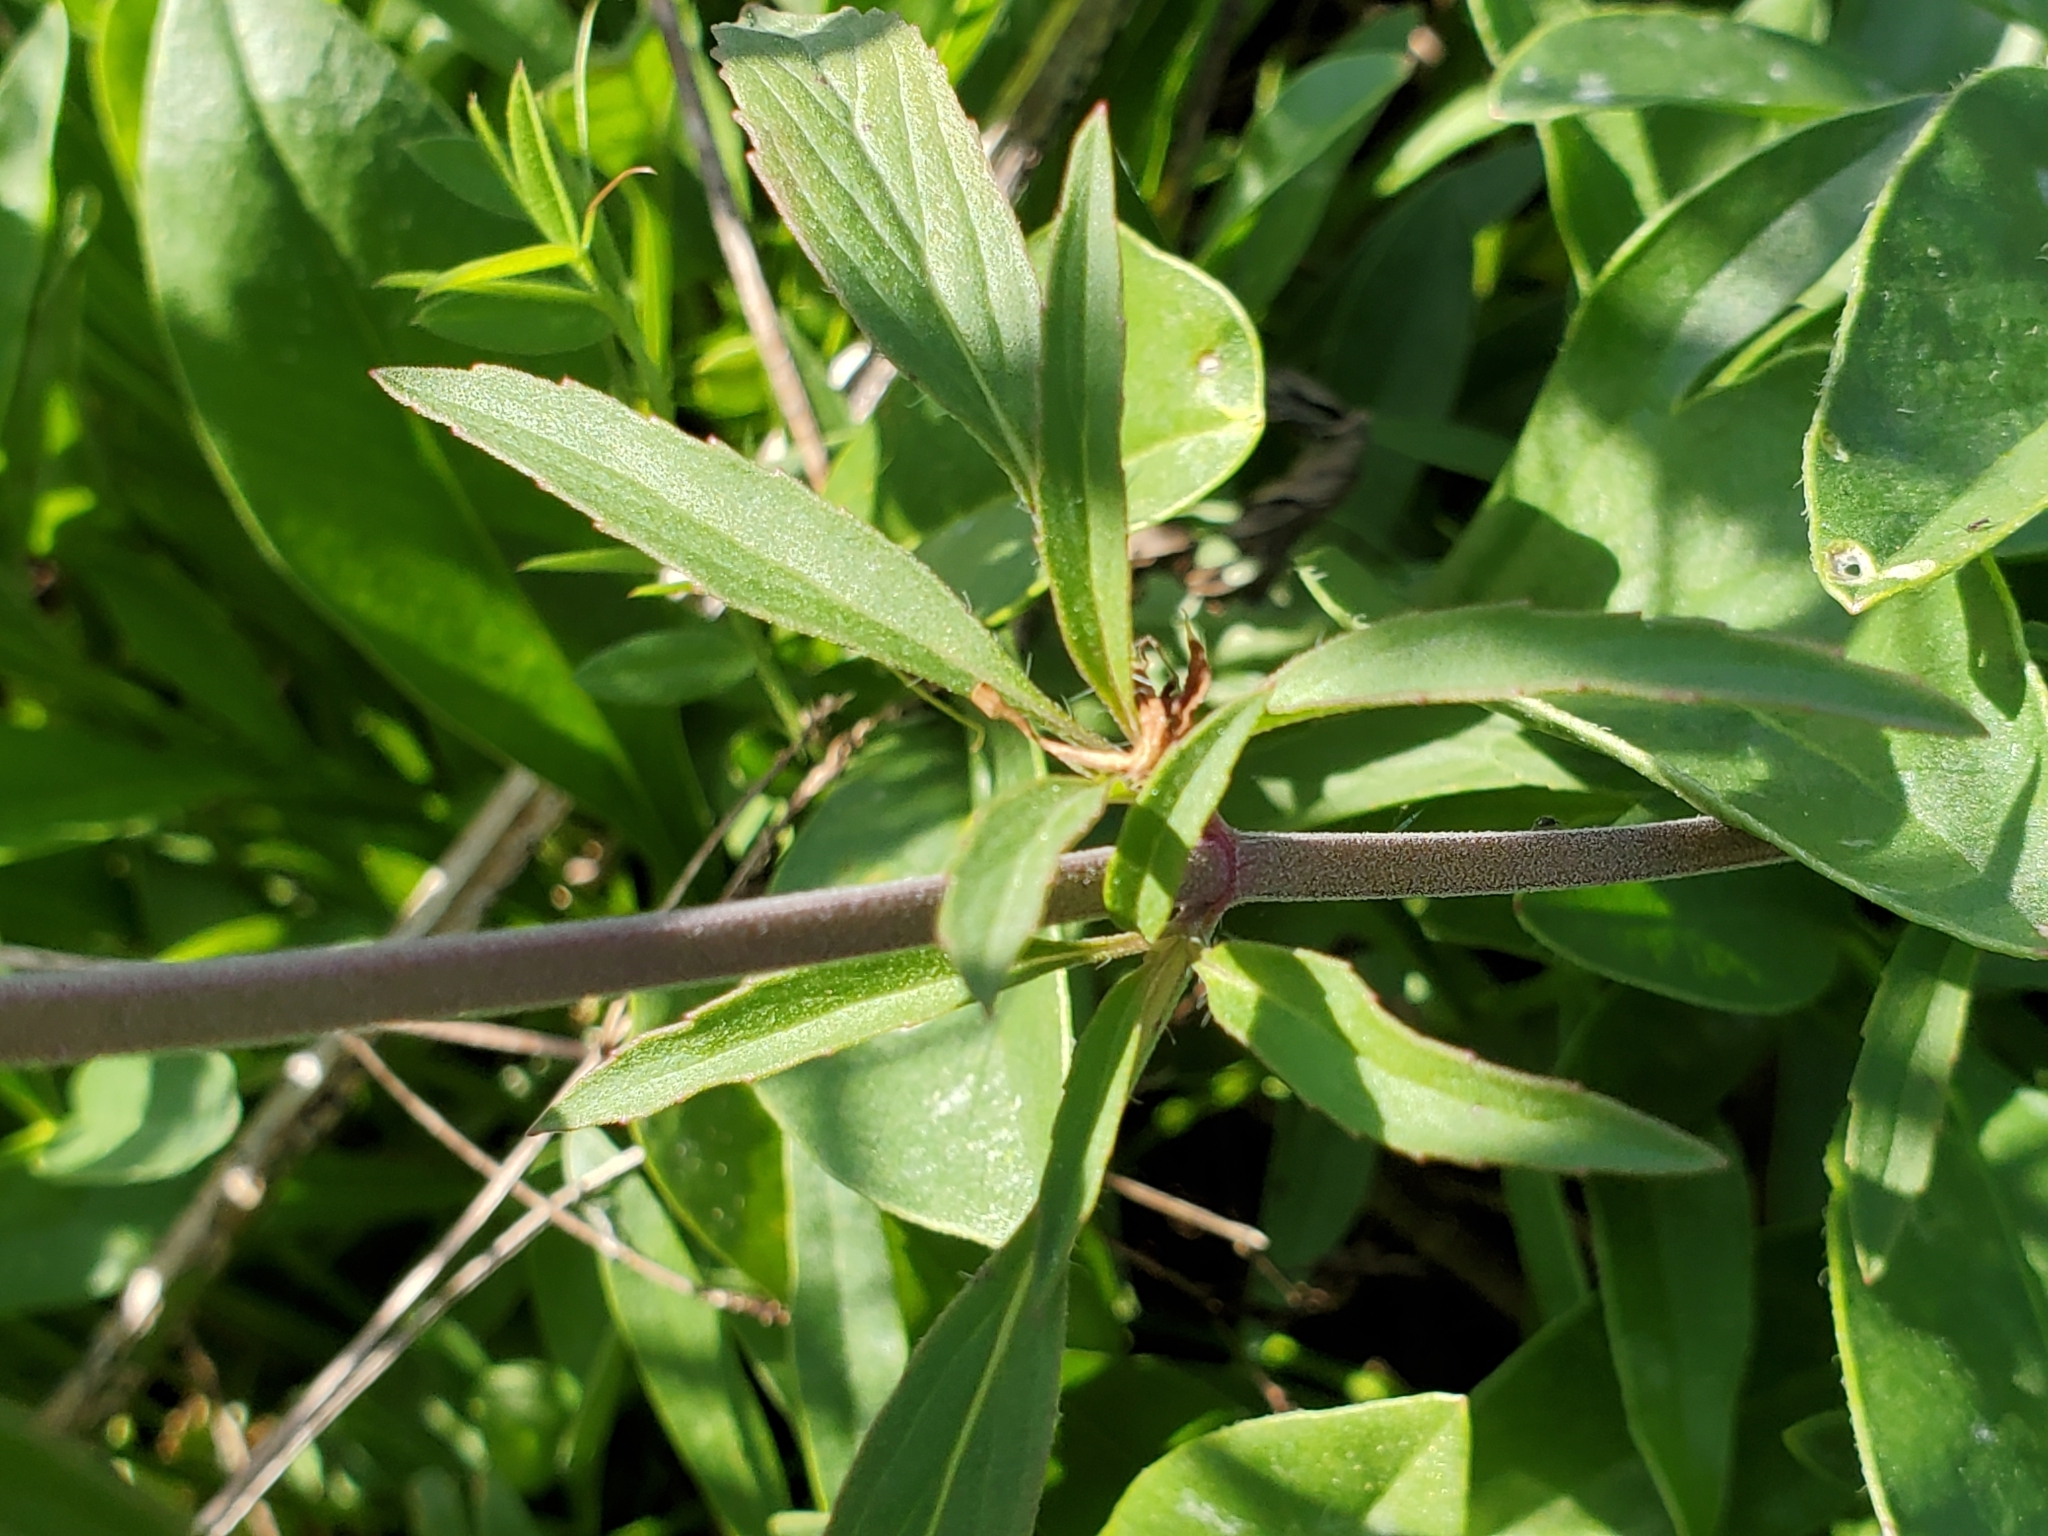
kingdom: Plantae
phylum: Tracheophyta
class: Magnoliopsida
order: Lamiales
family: Lamiaceae
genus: Monarda
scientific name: Monarda punctata
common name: Dotted monarda
